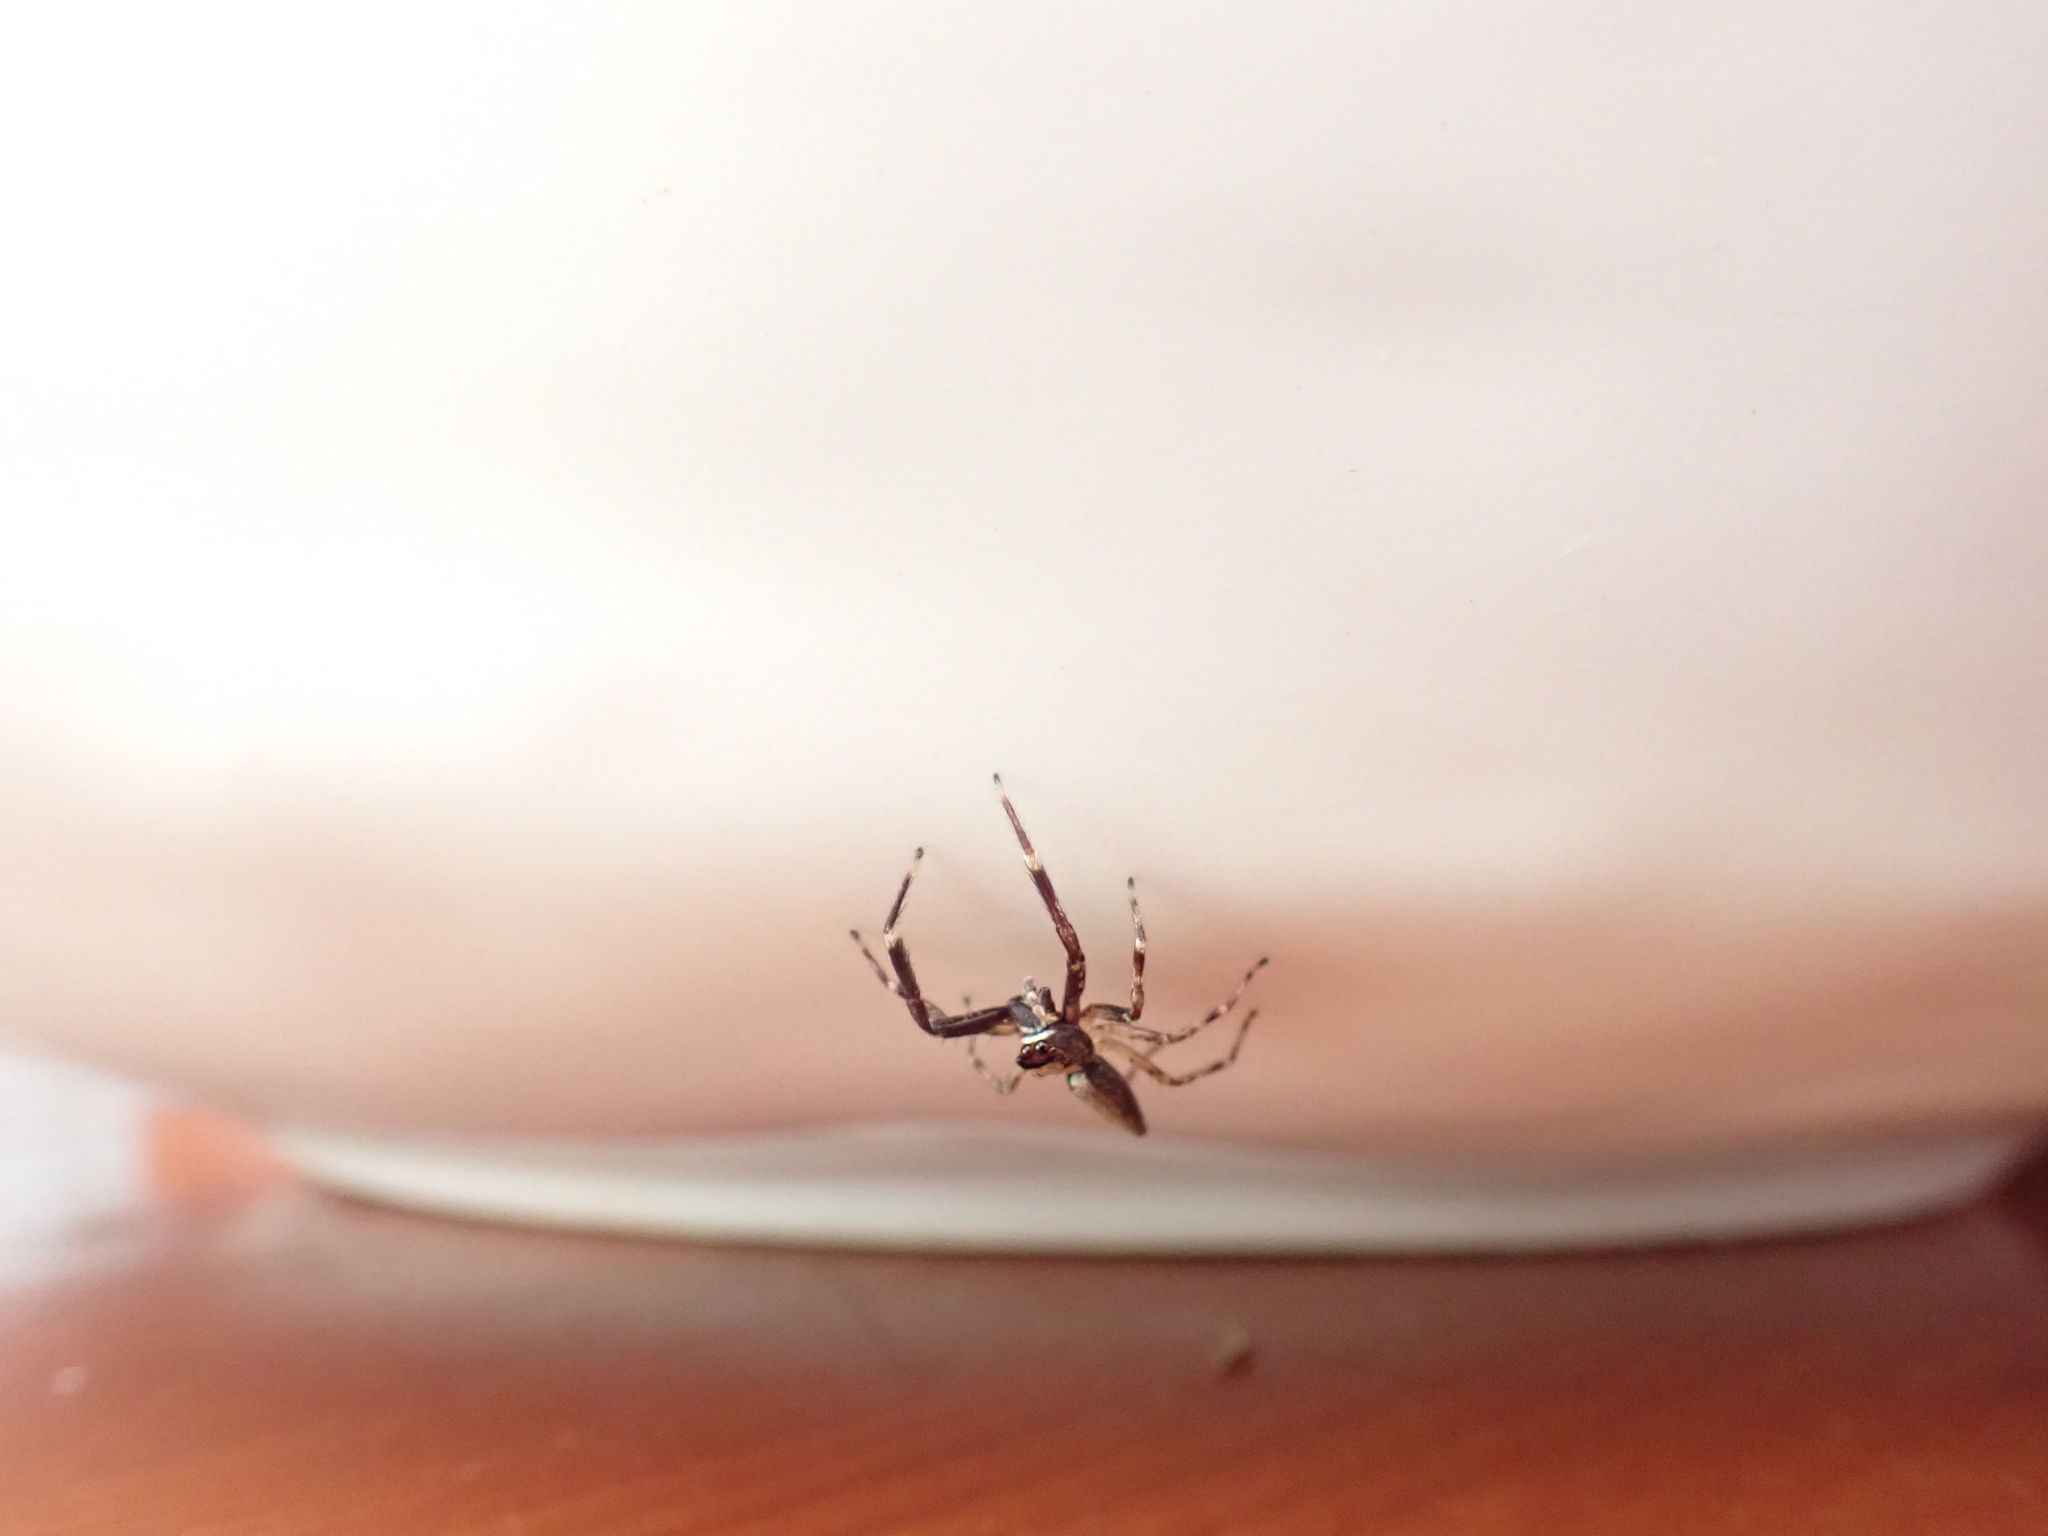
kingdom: Animalia
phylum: Arthropoda
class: Arachnida
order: Araneae
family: Salticidae
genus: Helpis
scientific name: Helpis minitabunda
